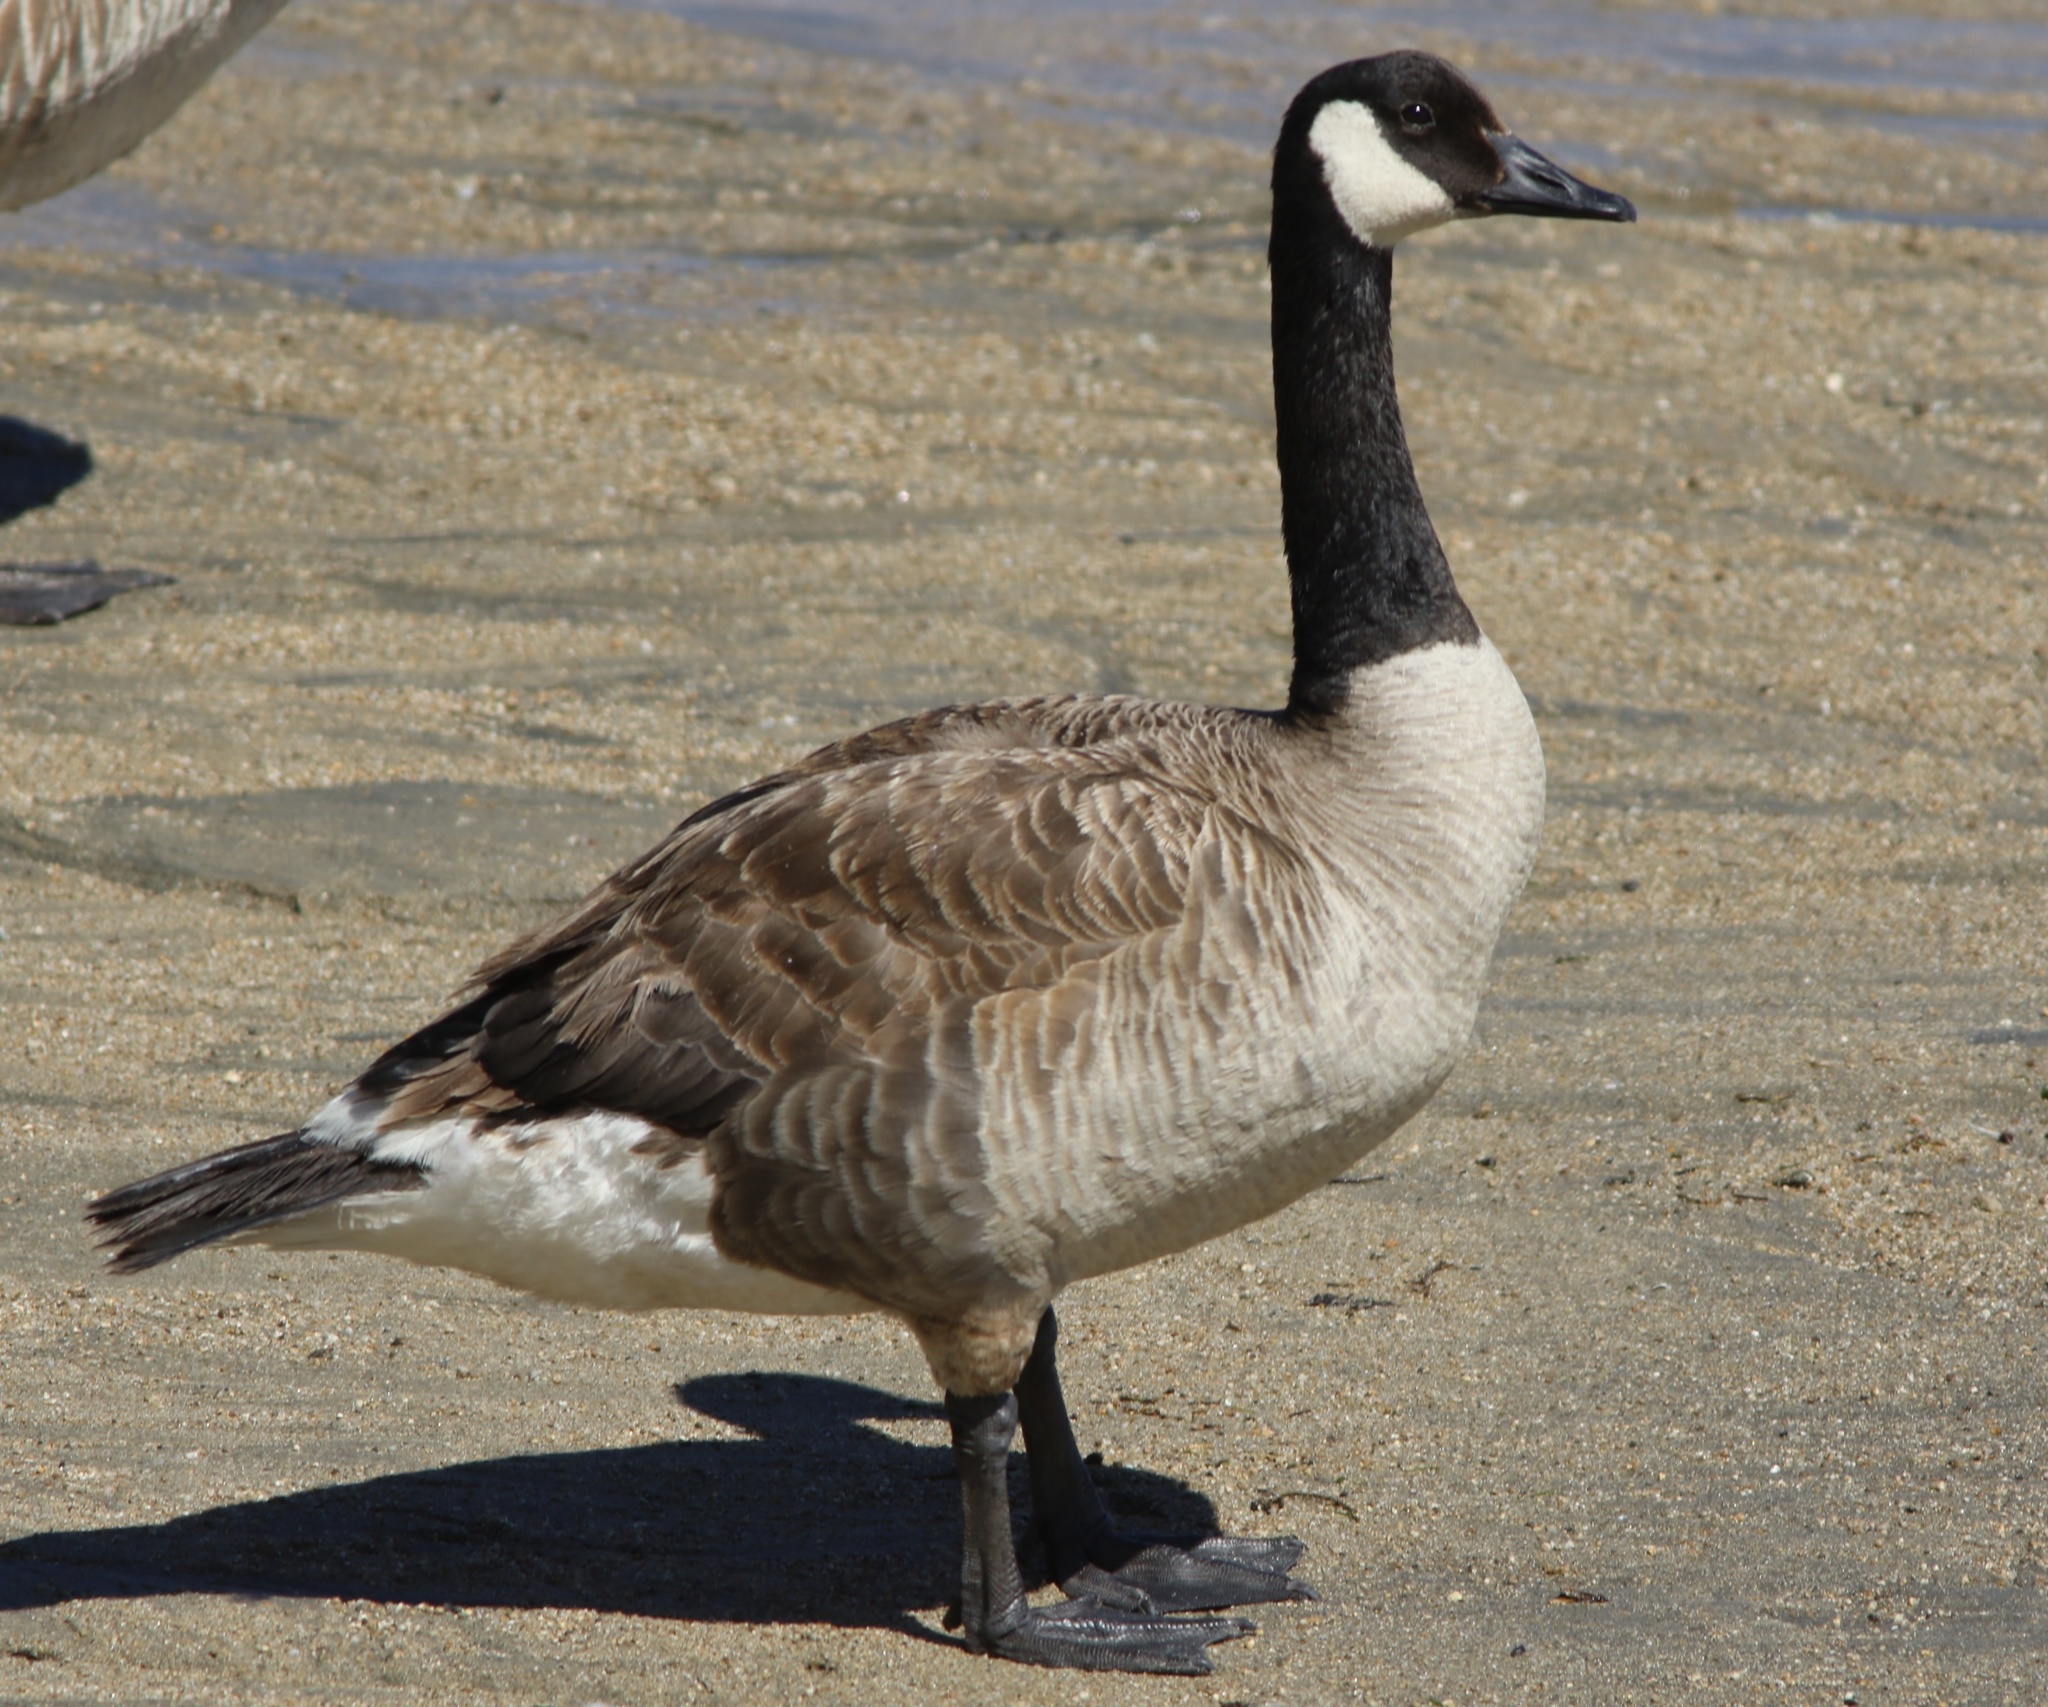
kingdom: Animalia
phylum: Chordata
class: Aves
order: Anseriformes
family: Anatidae
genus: Branta
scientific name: Branta canadensis
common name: Canada goose
